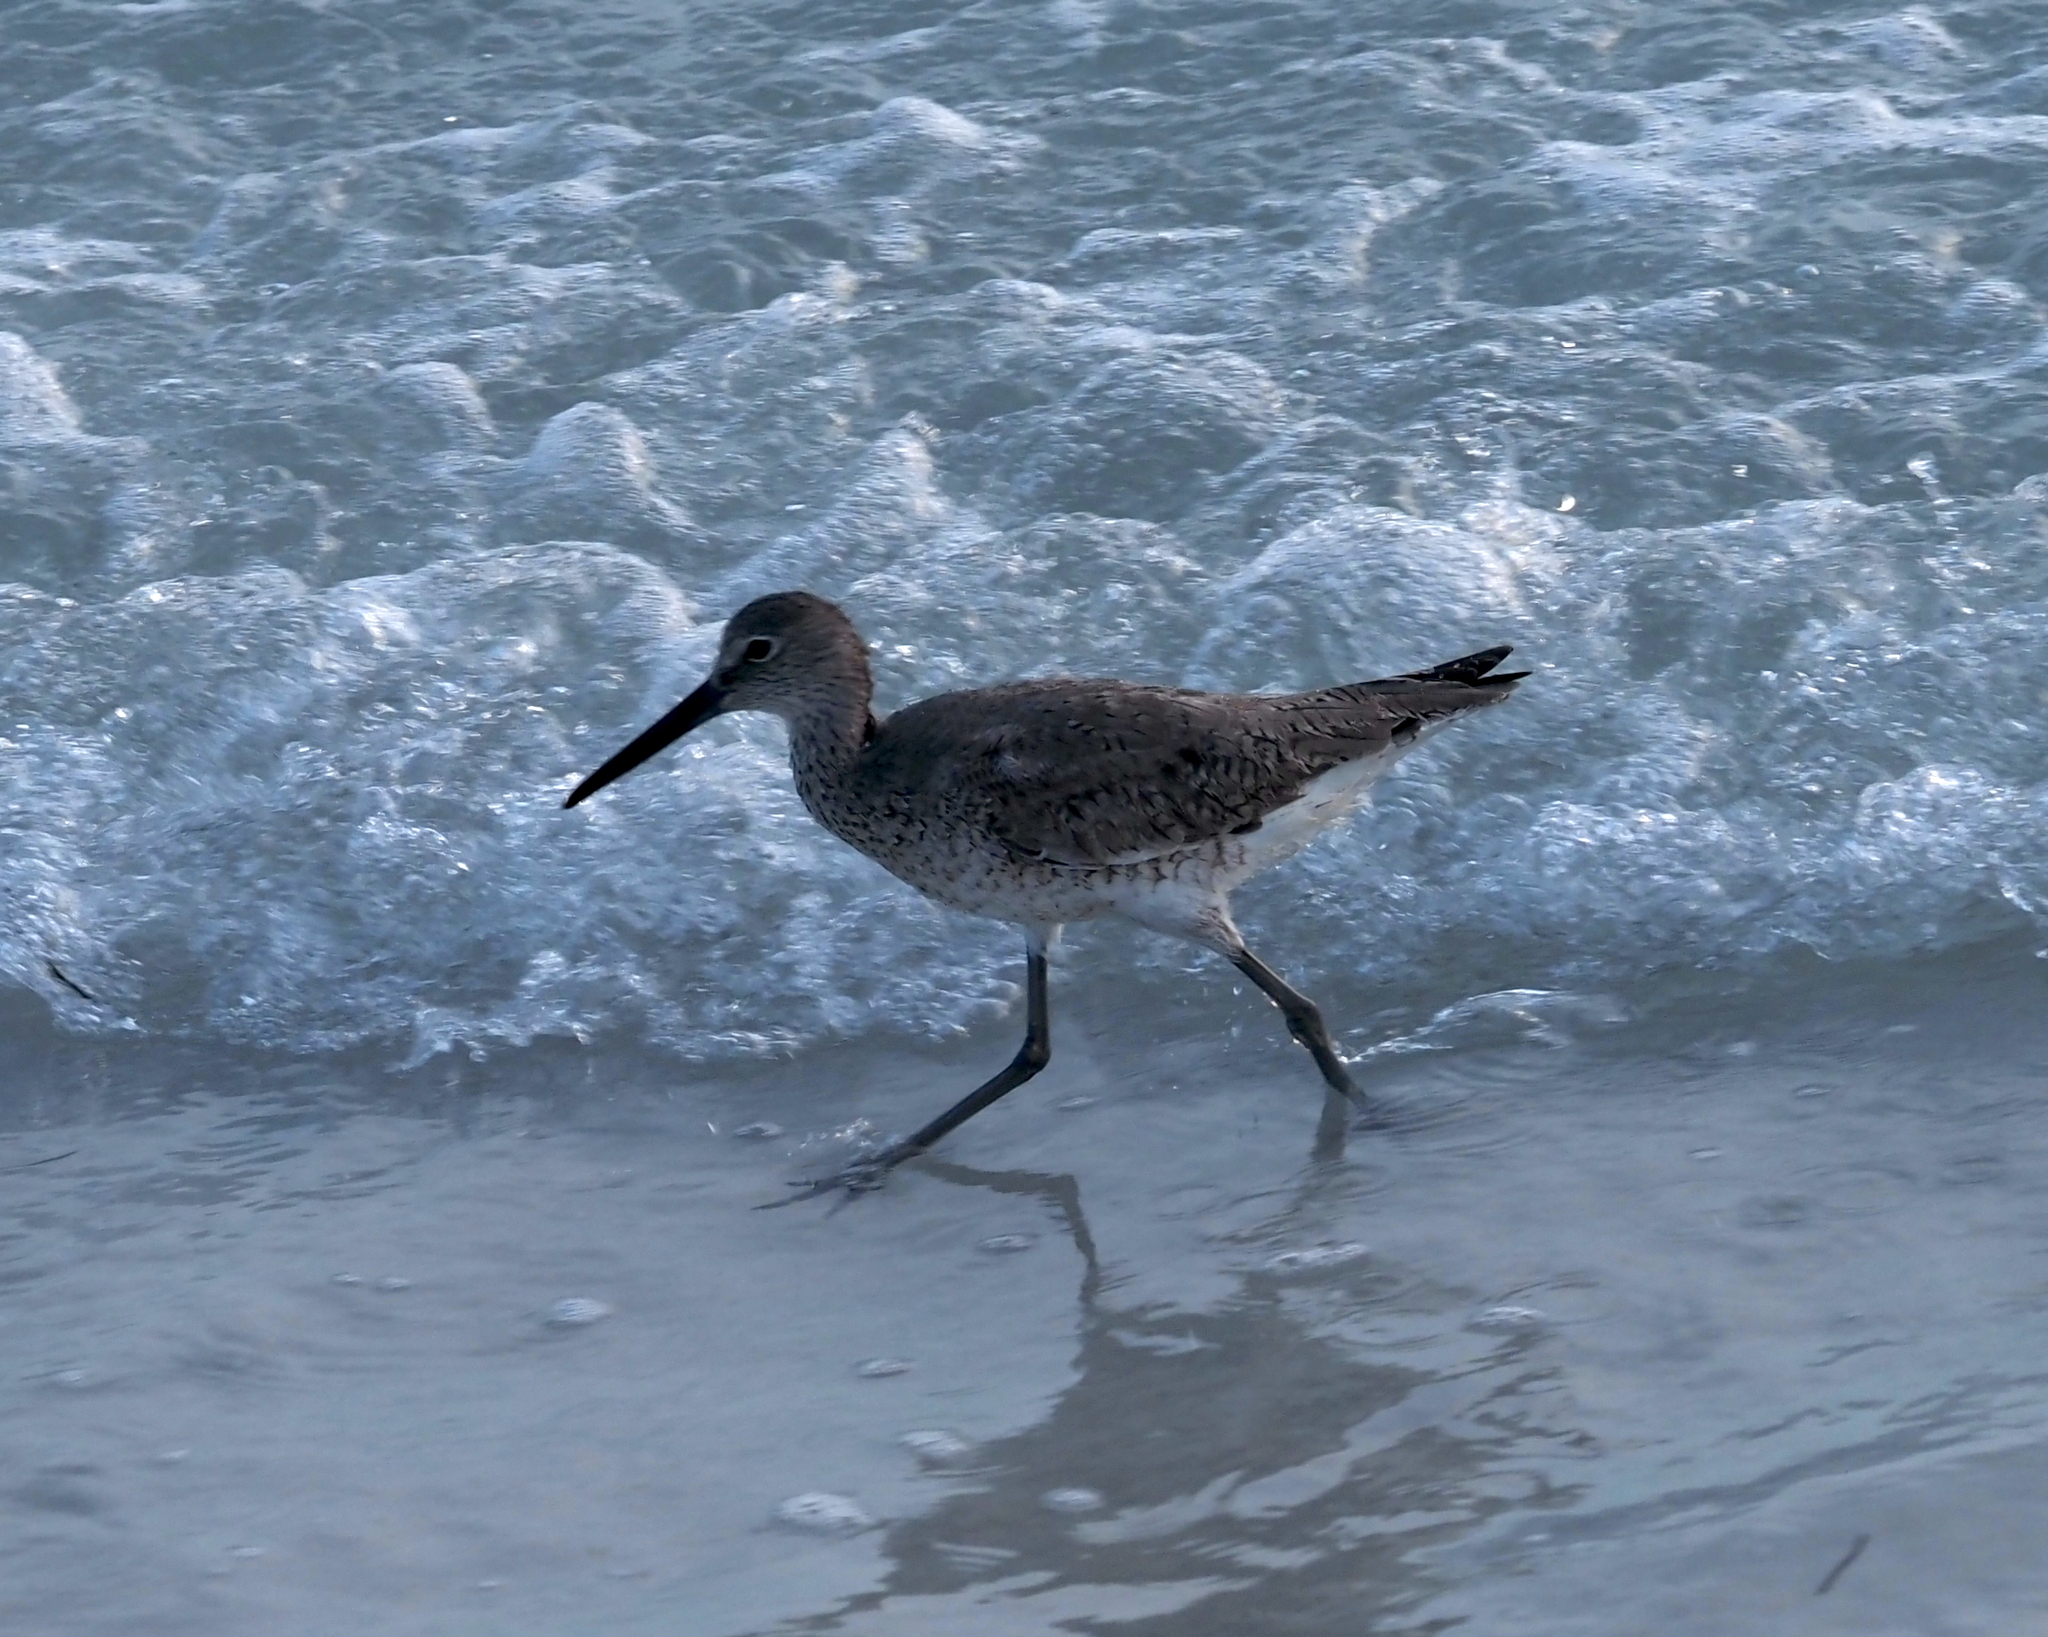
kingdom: Animalia
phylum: Chordata
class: Aves
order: Charadriiformes
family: Scolopacidae
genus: Tringa
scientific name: Tringa semipalmata
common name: Willet
